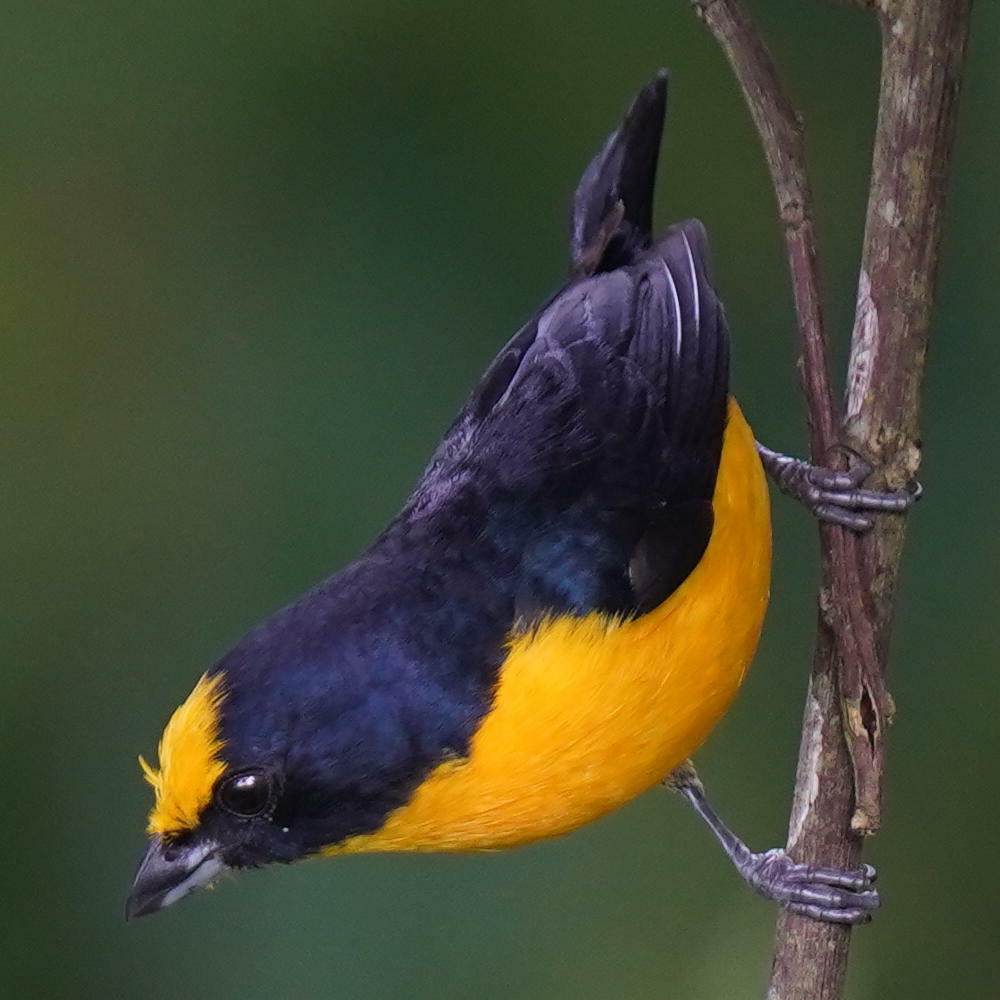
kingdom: Animalia
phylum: Chordata
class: Aves
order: Passeriformes
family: Fringillidae
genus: Euphonia
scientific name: Euphonia laniirostris
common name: Thick-billed euphonia
